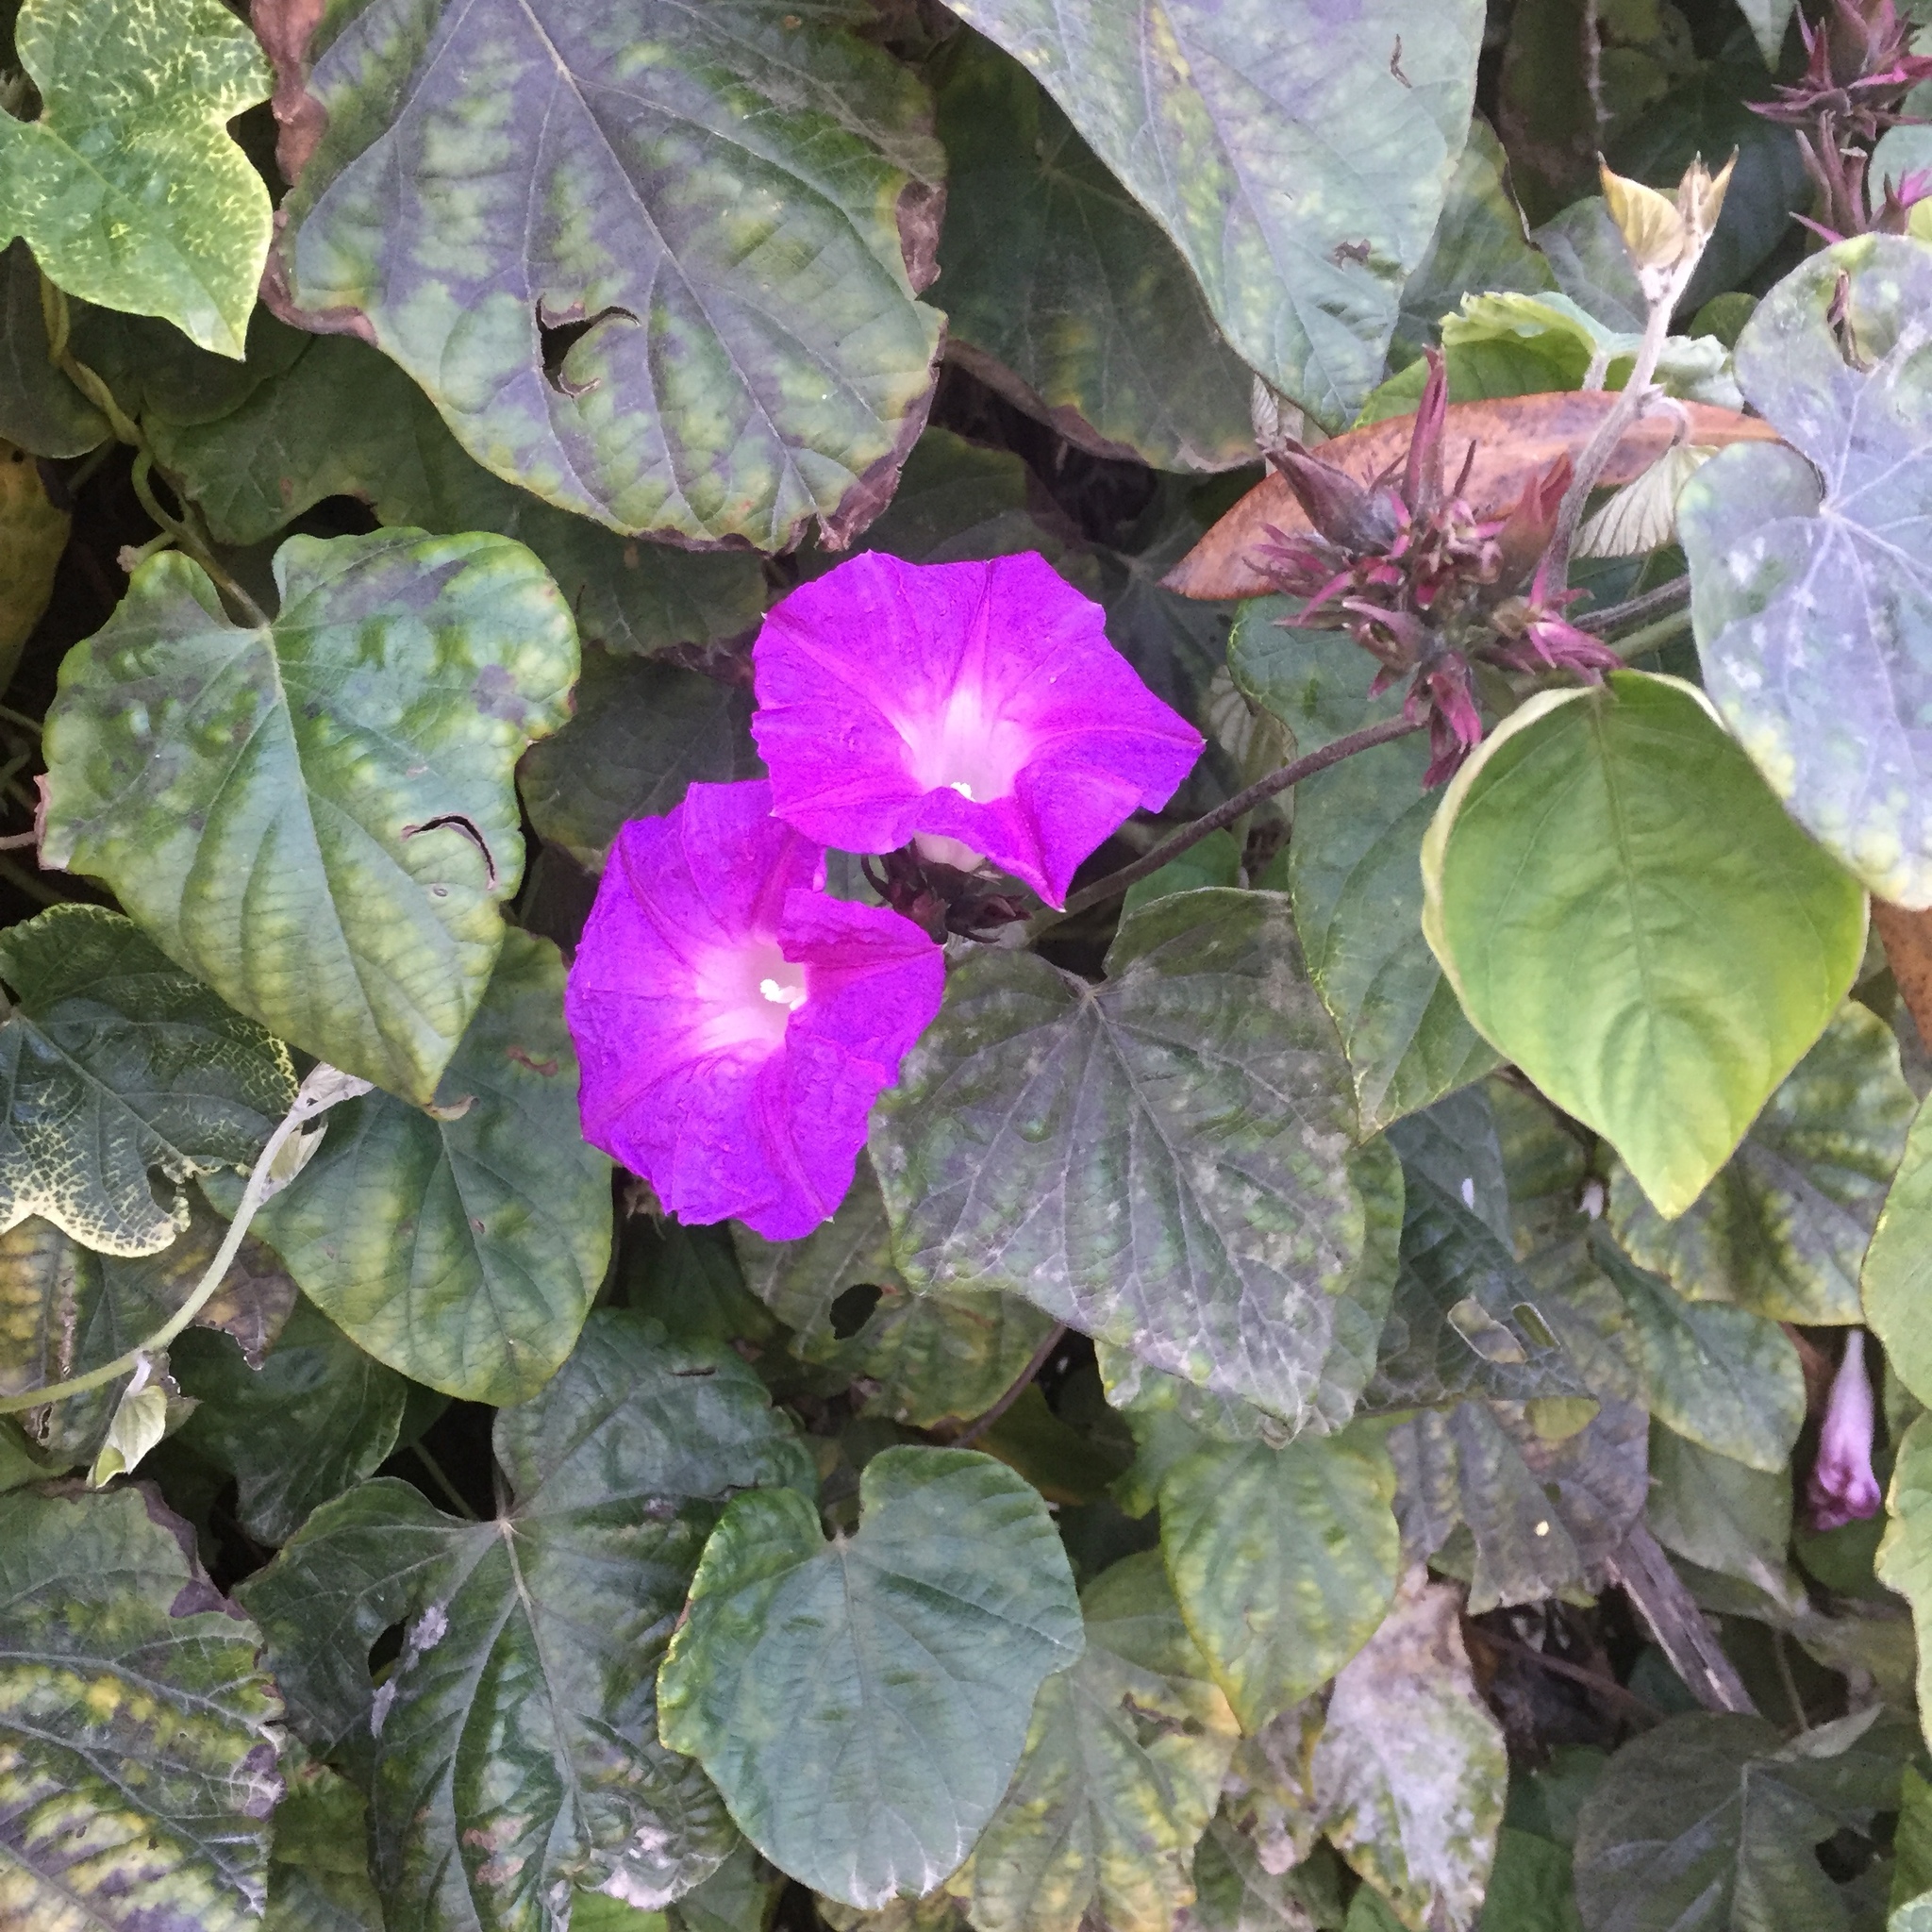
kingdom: Plantae
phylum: Tracheophyta
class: Magnoliopsida
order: Solanales
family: Convolvulaceae
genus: Ipomoea
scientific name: Ipomoea indica
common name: Blue dawnflower
